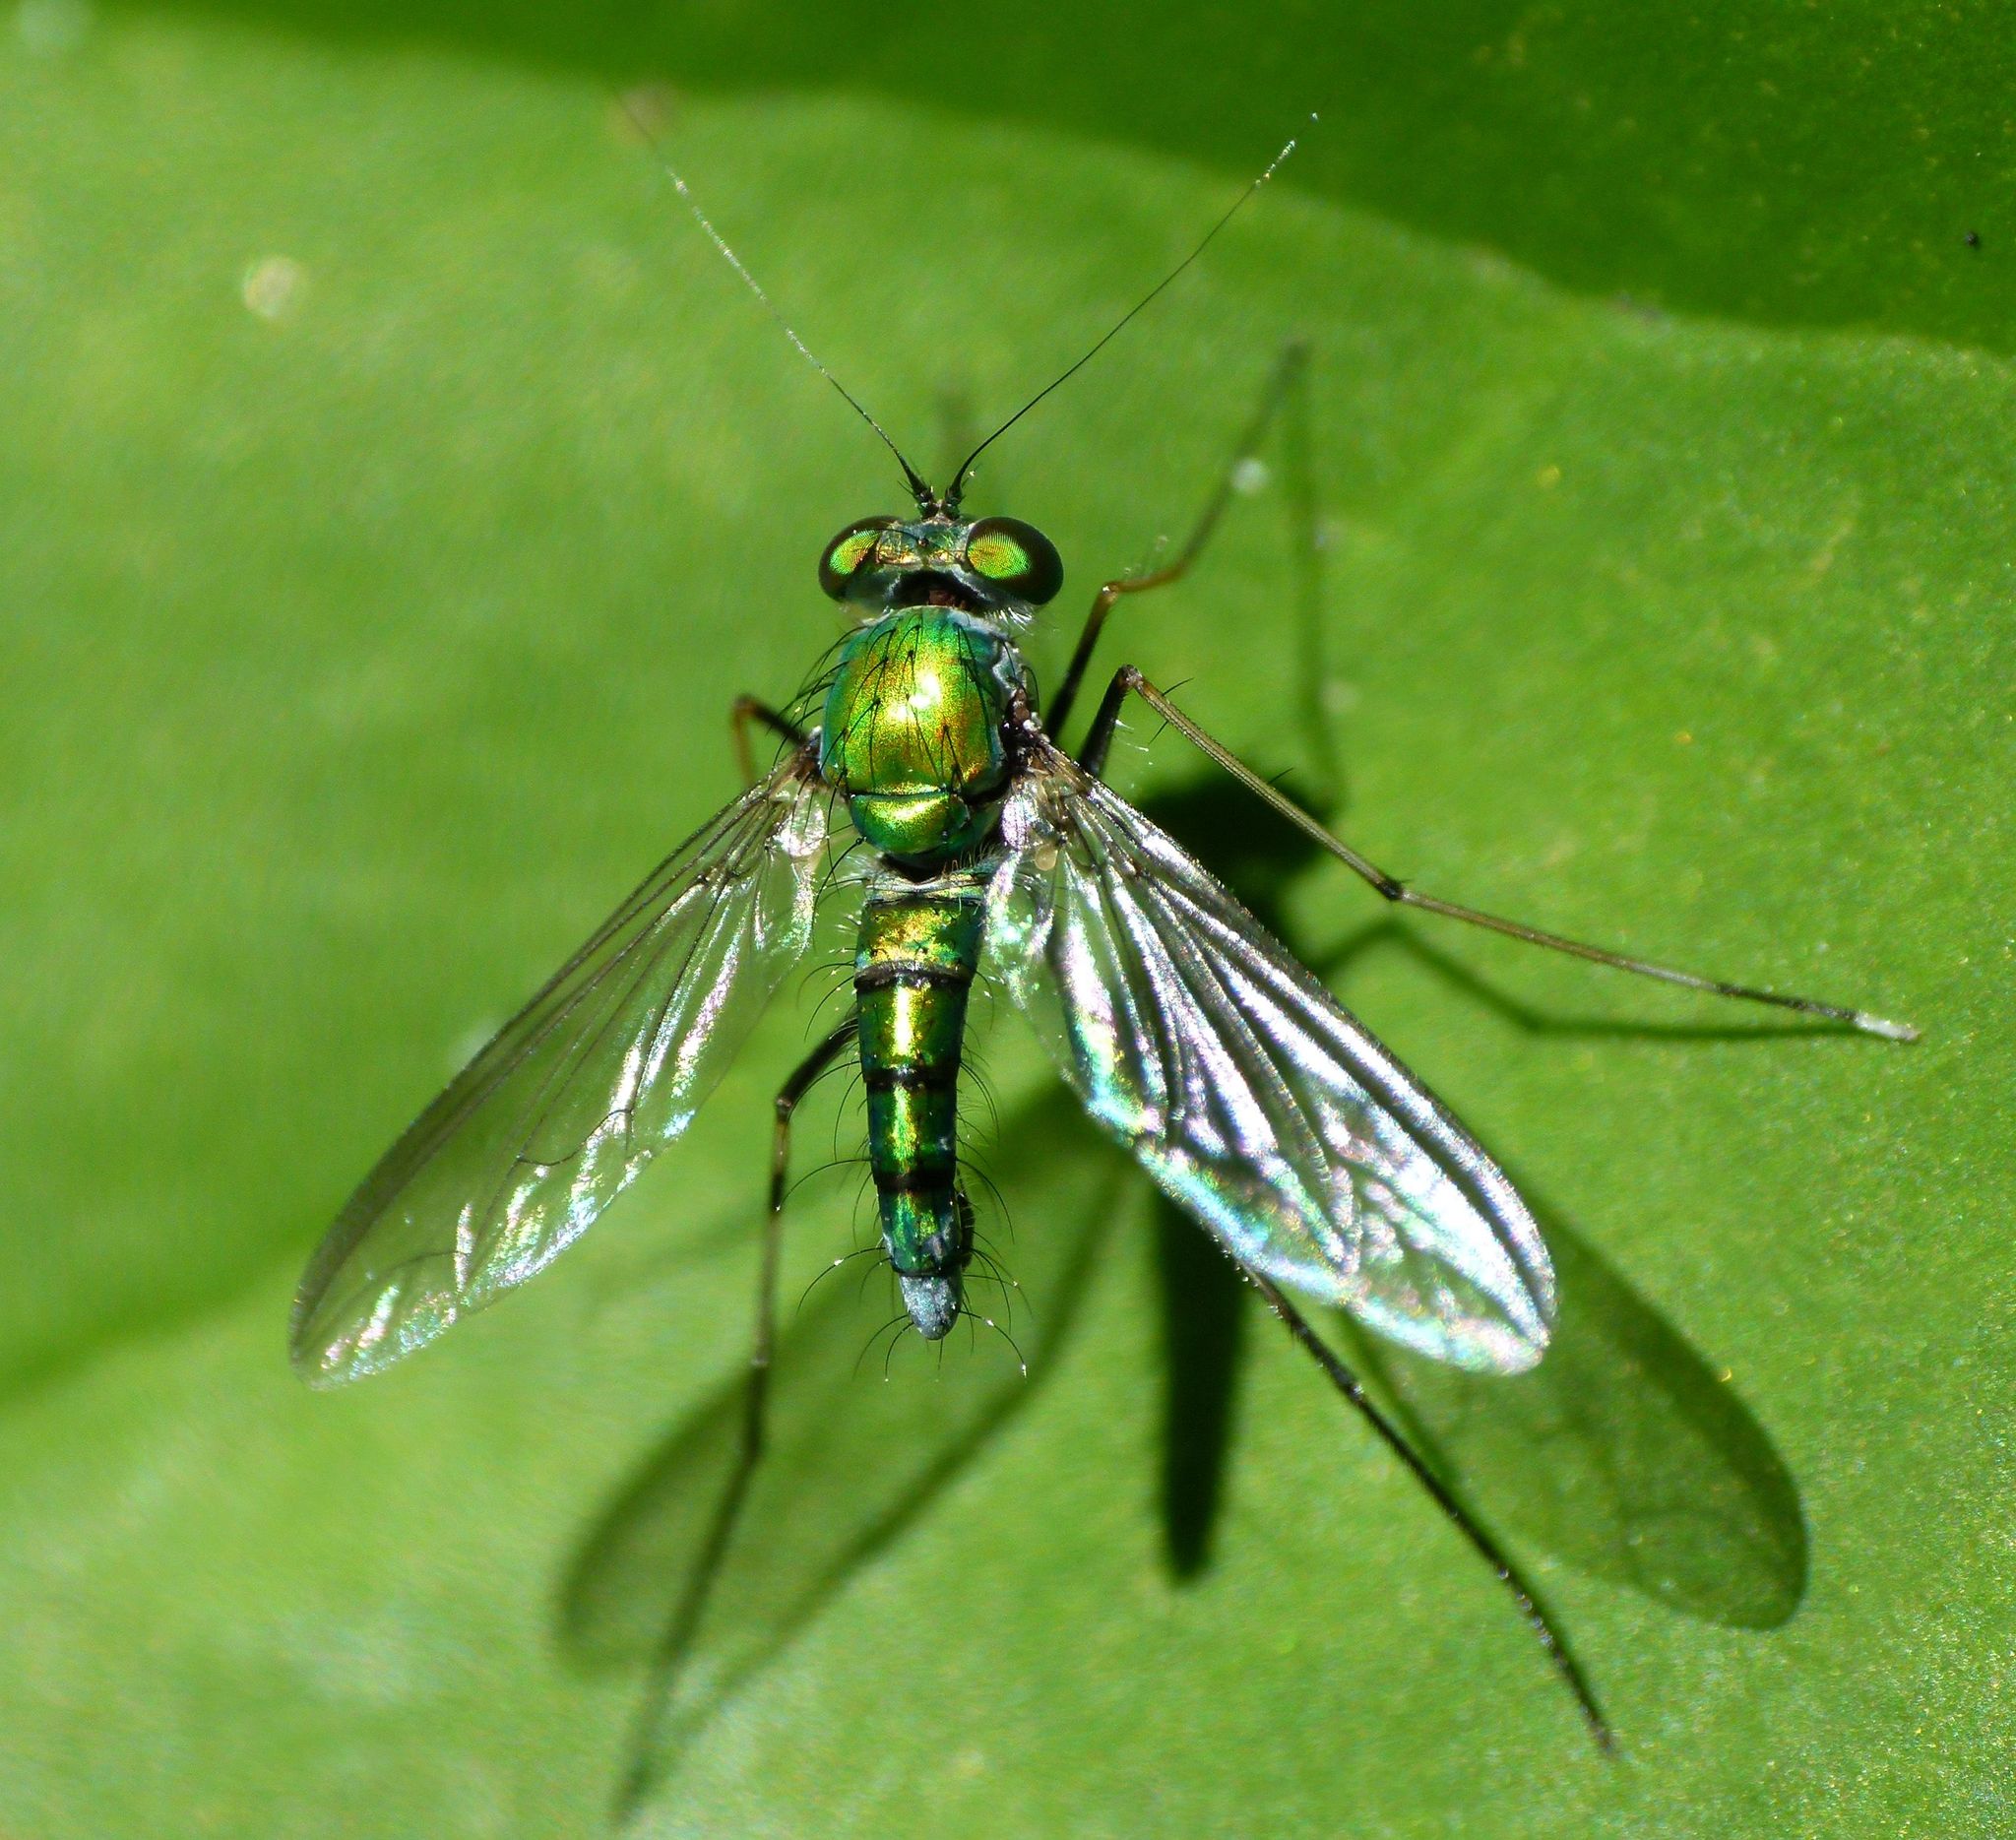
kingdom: Animalia
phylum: Arthropoda
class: Insecta
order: Diptera
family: Dolichopodidae
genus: Chrysosoma
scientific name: Chrysosoma leucopogon
